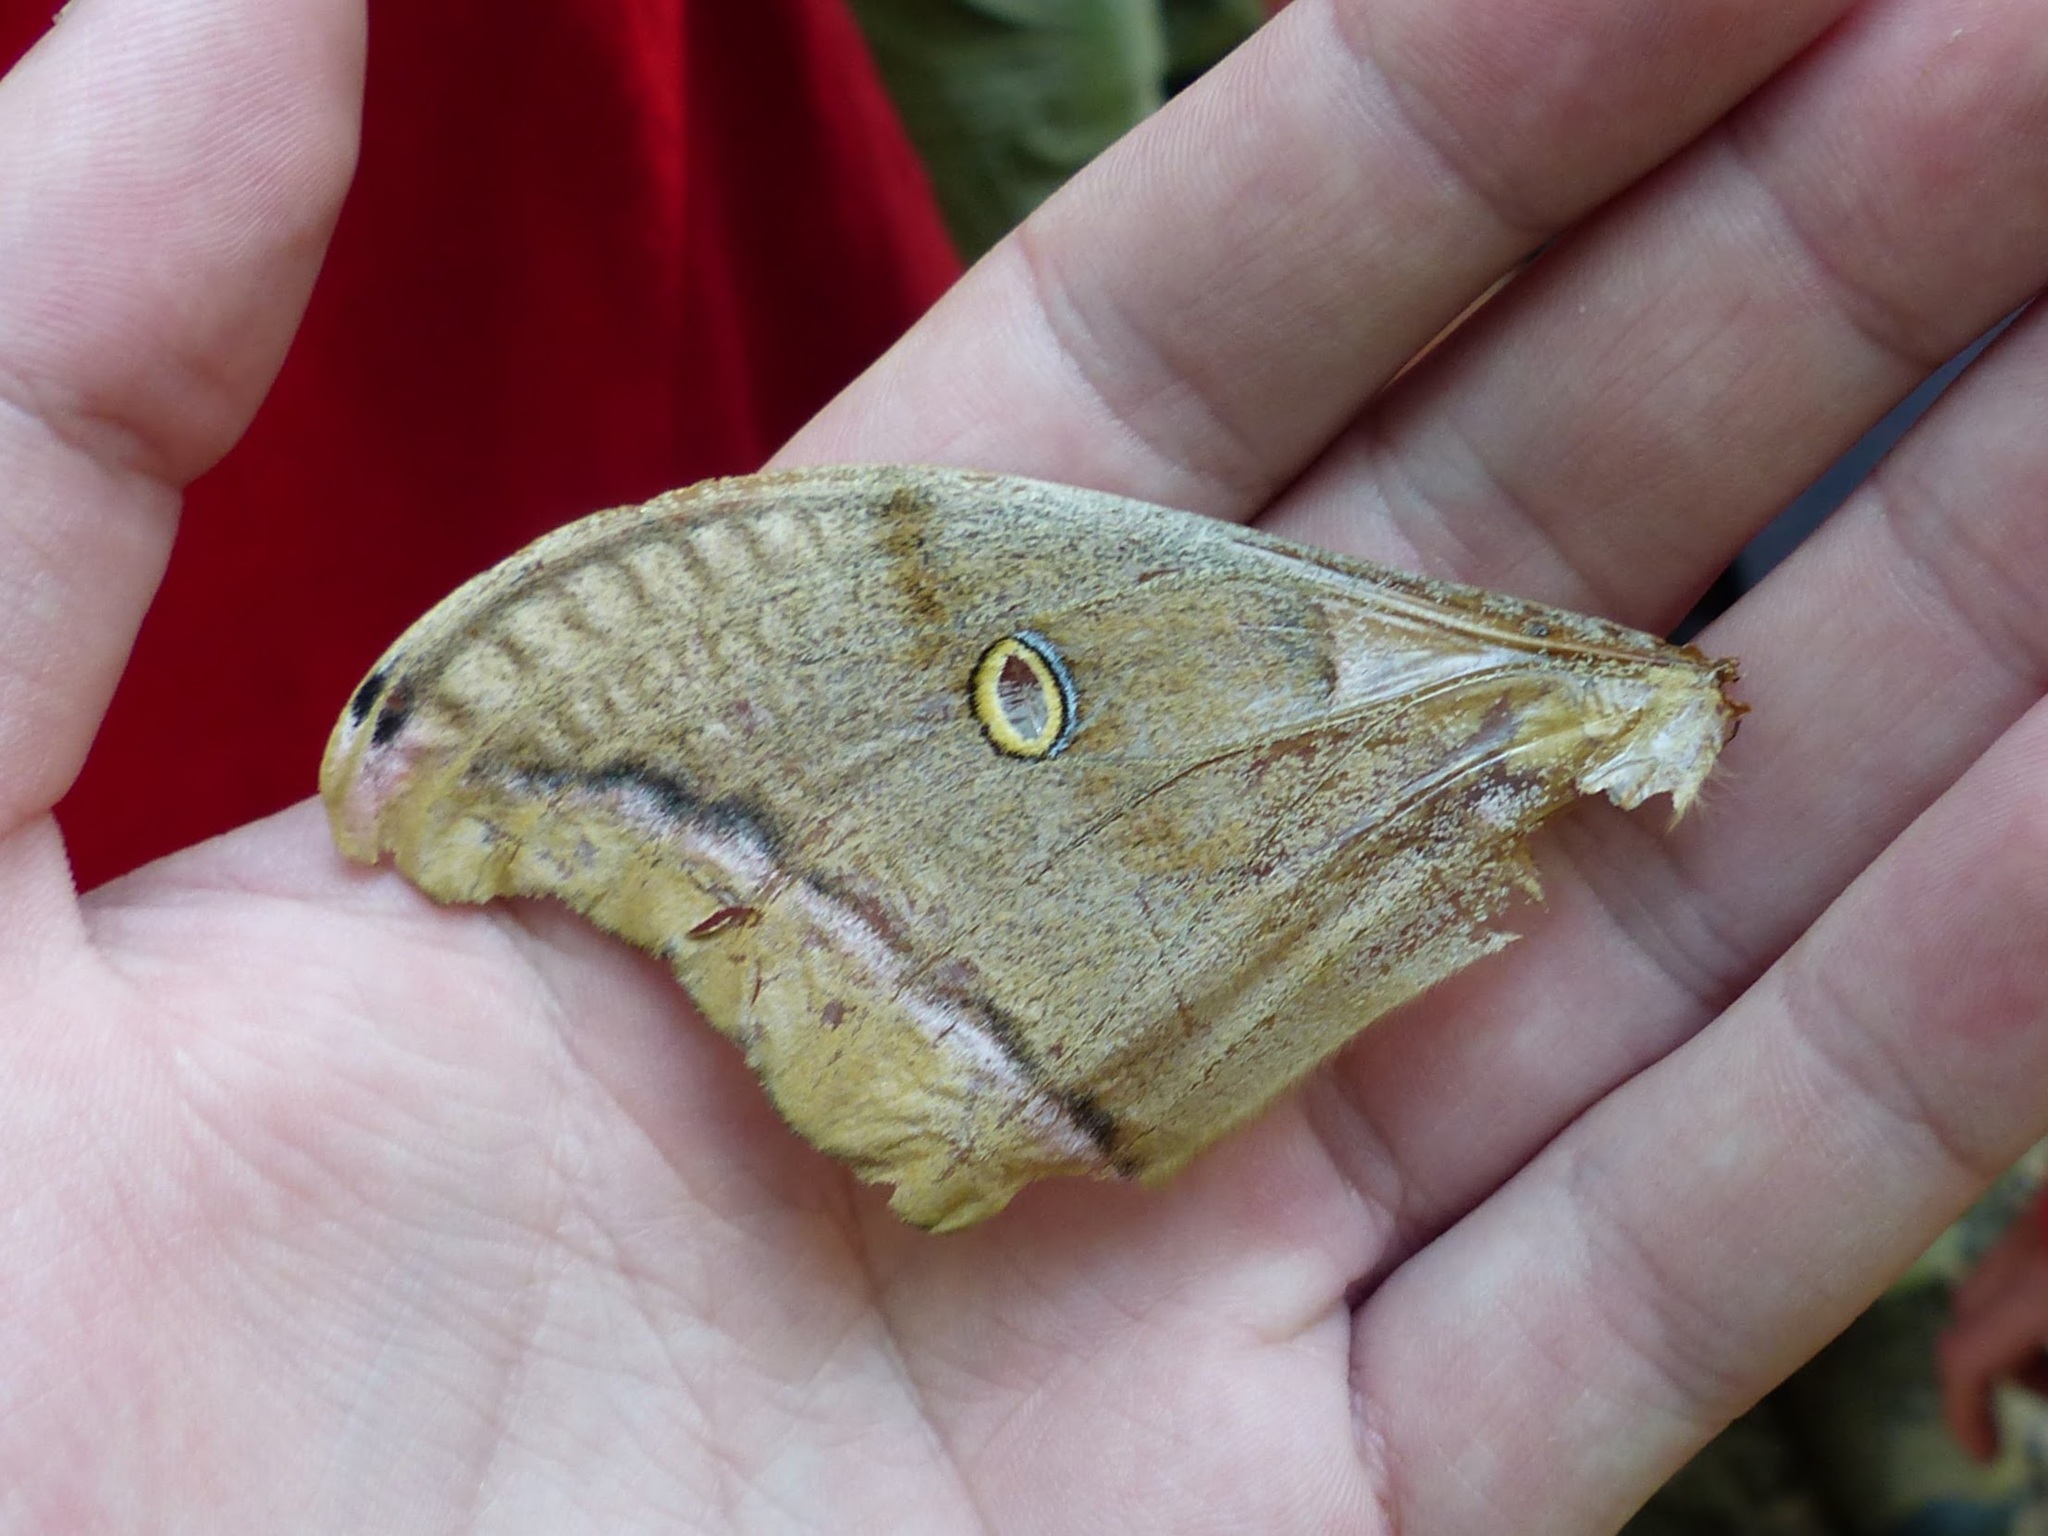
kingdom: Animalia
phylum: Arthropoda
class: Insecta
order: Lepidoptera
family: Saturniidae
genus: Antheraea
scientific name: Antheraea polyphemus
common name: Polyphemus moth
